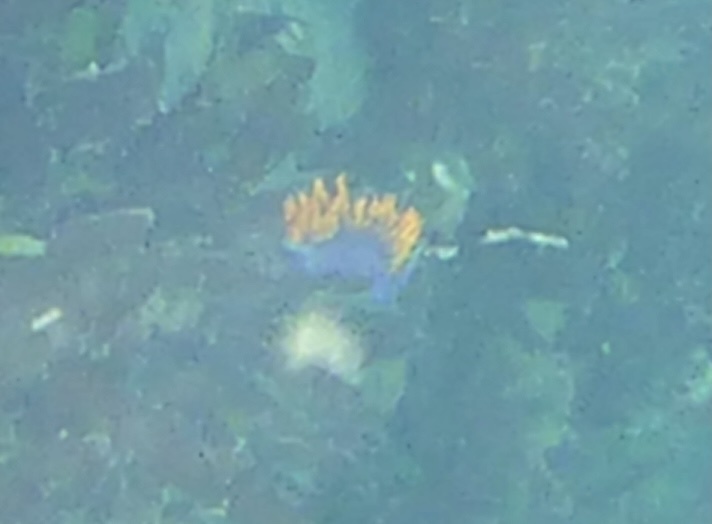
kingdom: Animalia
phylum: Mollusca
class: Gastropoda
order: Nudibranchia
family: Flabellinopsidae
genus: Flabellinopsis
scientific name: Flabellinopsis iodinea
